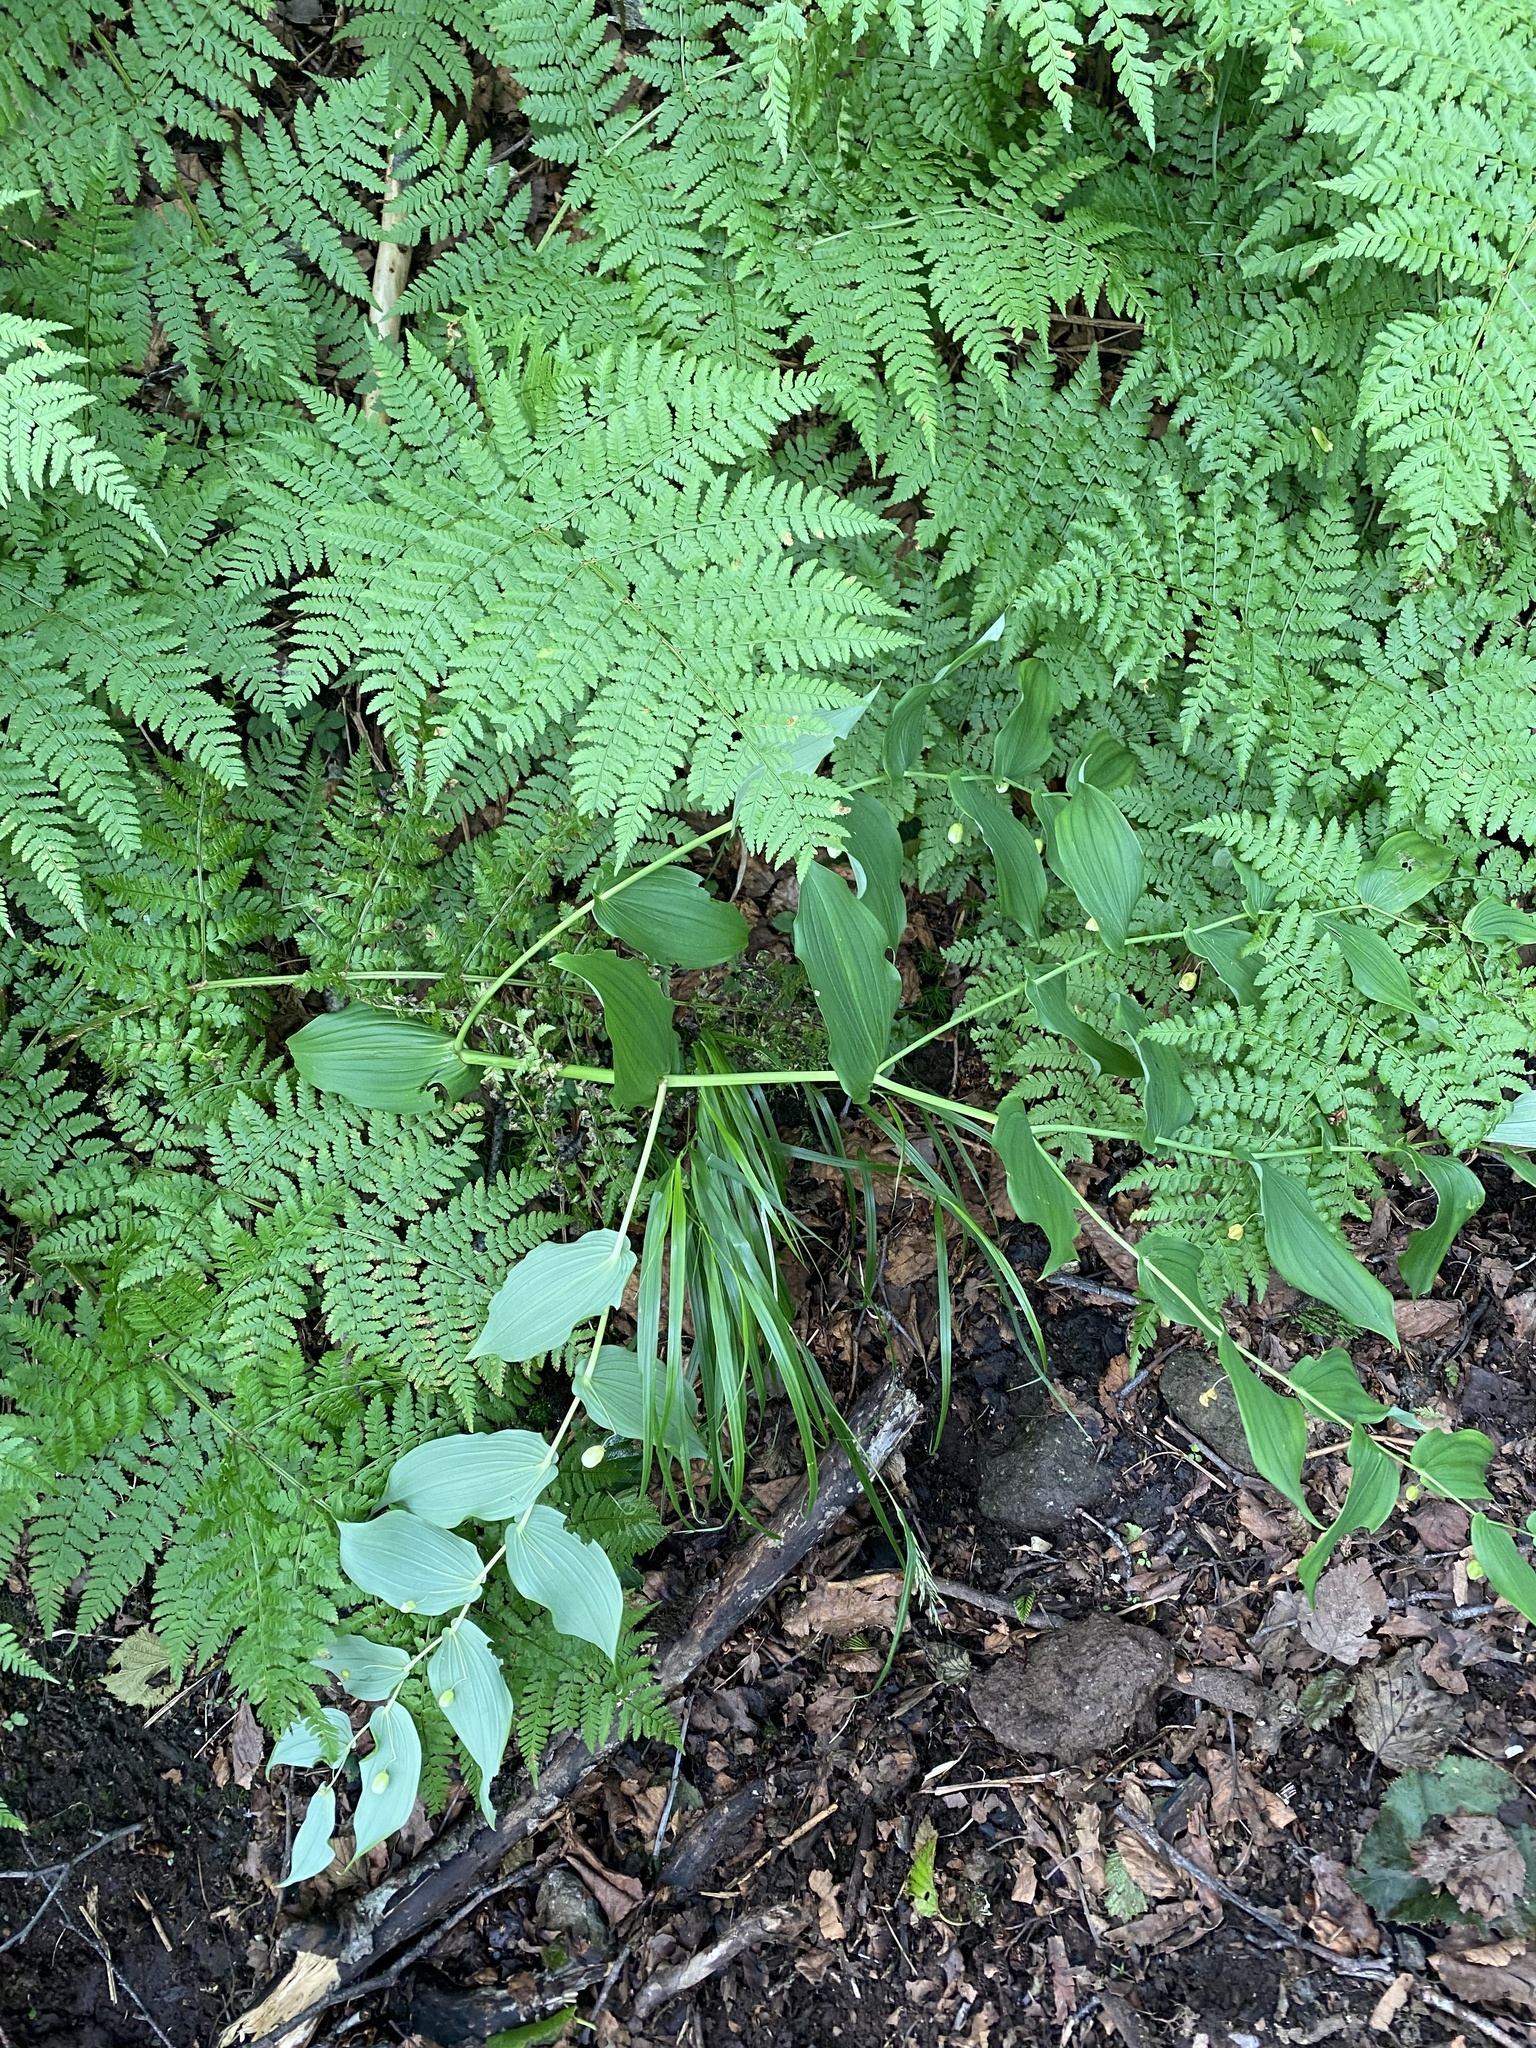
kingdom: Plantae
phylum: Tracheophyta
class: Polypodiopsida
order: Polypodiales
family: Dryopteridaceae
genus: Dryopteris
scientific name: Dryopteris expansa
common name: Northern buckler fern
